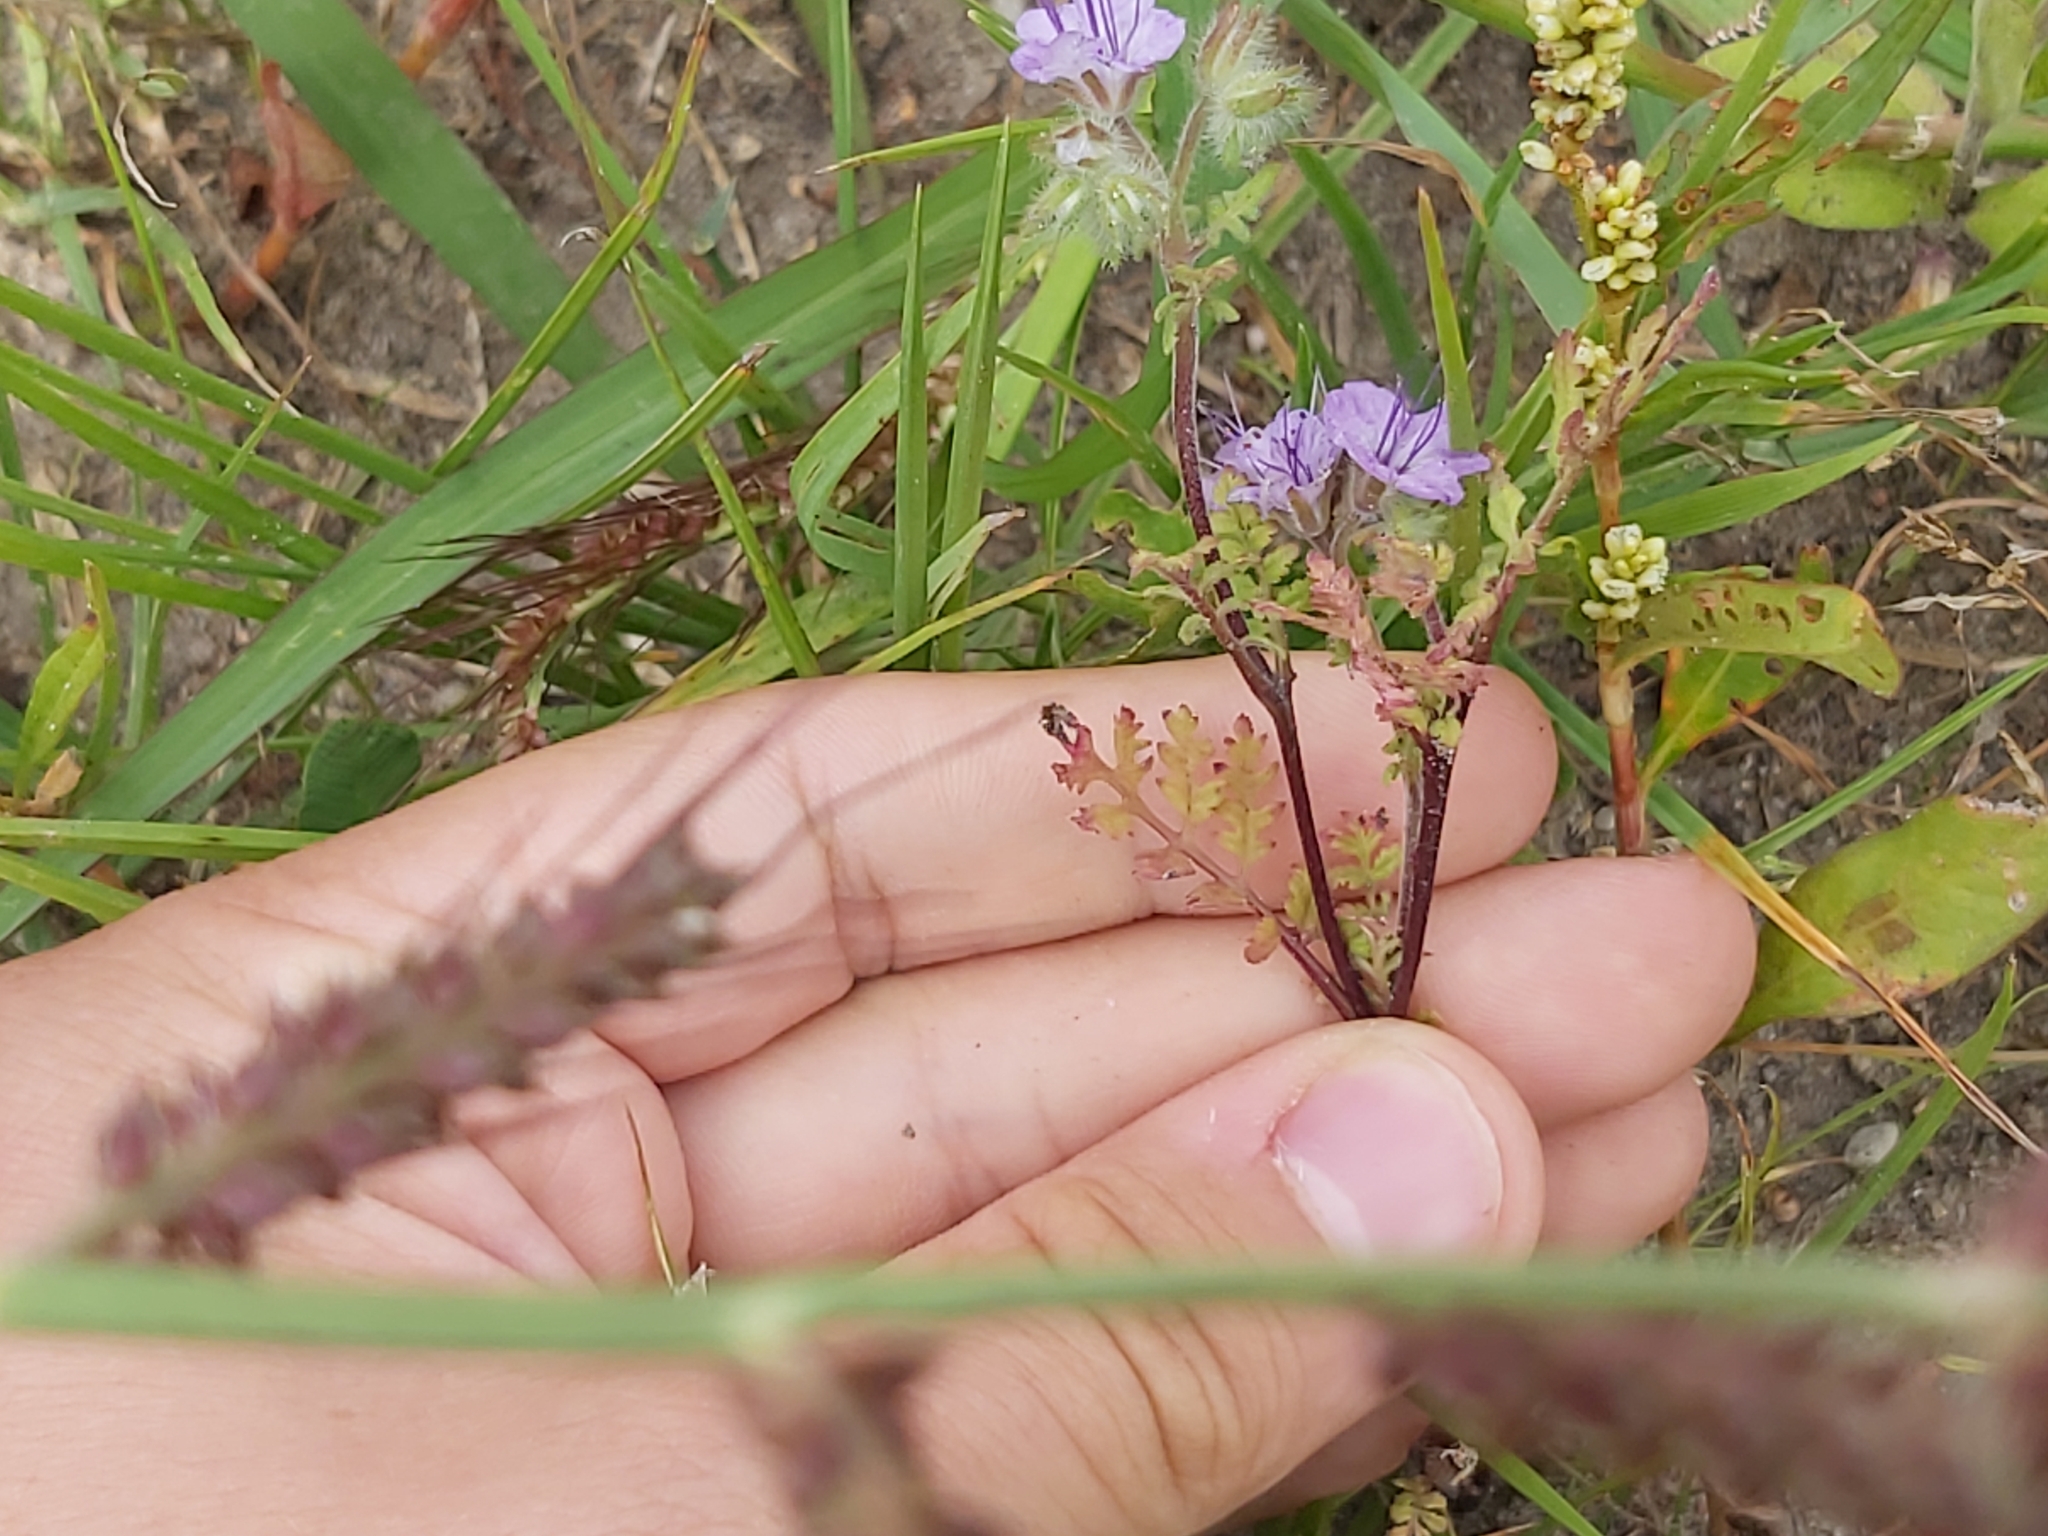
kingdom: Plantae
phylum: Tracheophyta
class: Magnoliopsida
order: Boraginales
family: Hydrophyllaceae
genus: Phacelia
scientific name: Phacelia tanacetifolia
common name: Phacelia
